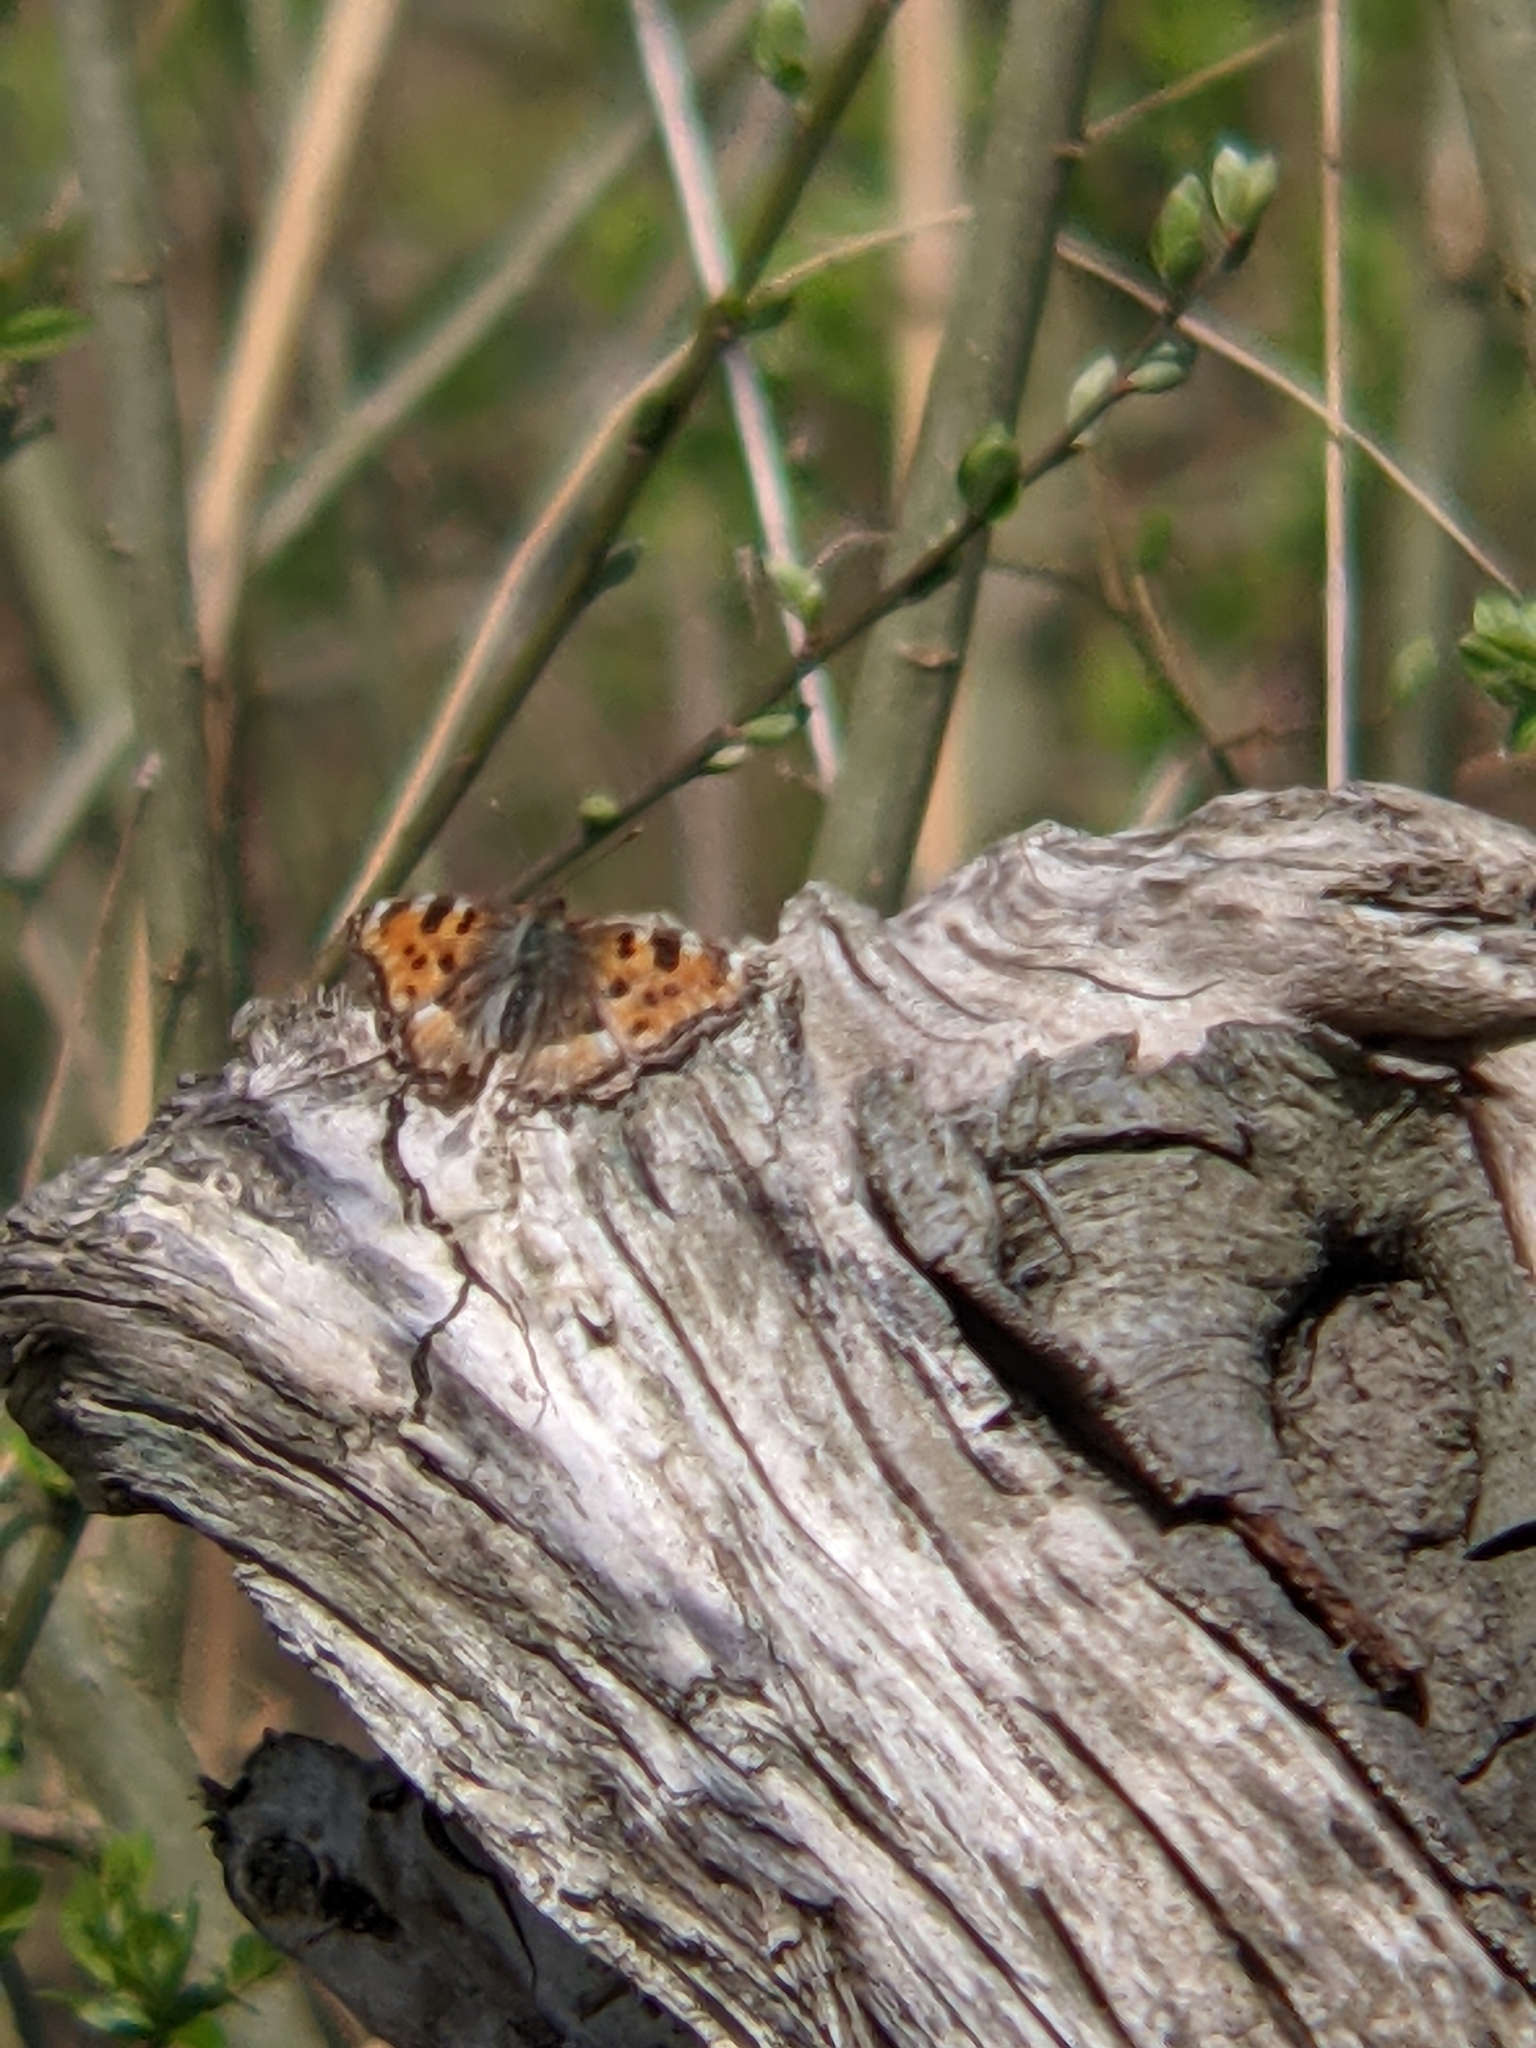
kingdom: Animalia
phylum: Arthropoda
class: Insecta
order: Lepidoptera
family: Nymphalidae
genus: Nymphalis
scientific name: Nymphalis polychloros
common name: Large tortoiseshell
